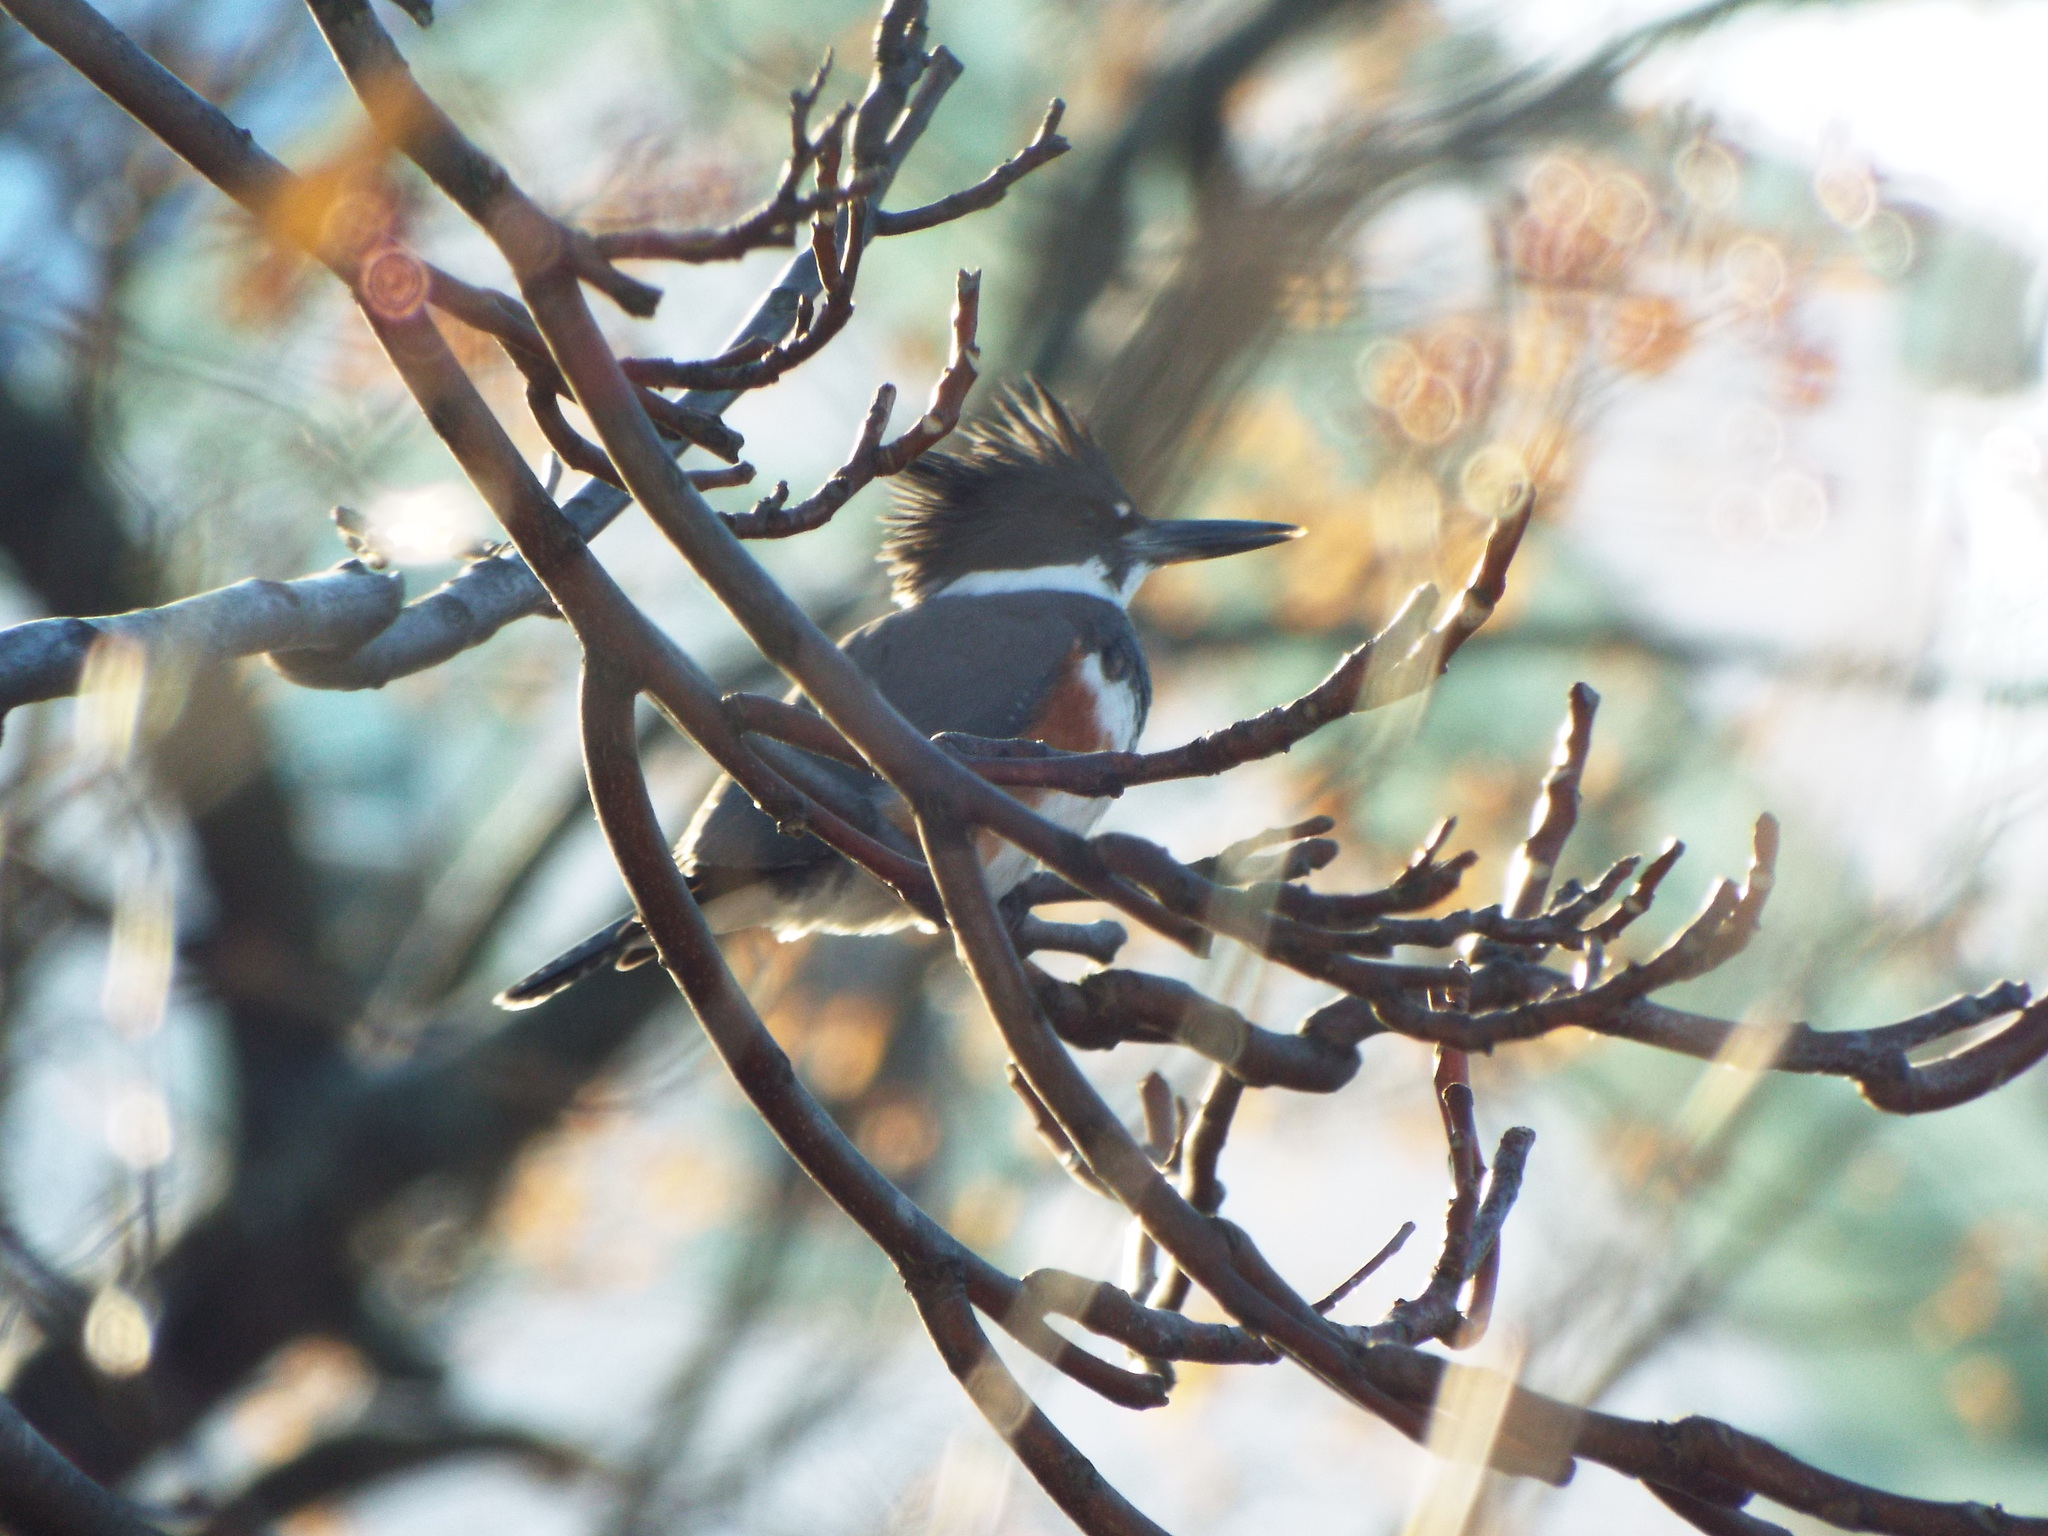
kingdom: Animalia
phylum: Chordata
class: Aves
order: Coraciiformes
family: Alcedinidae
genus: Megaceryle
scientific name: Megaceryle alcyon
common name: Belted kingfisher
